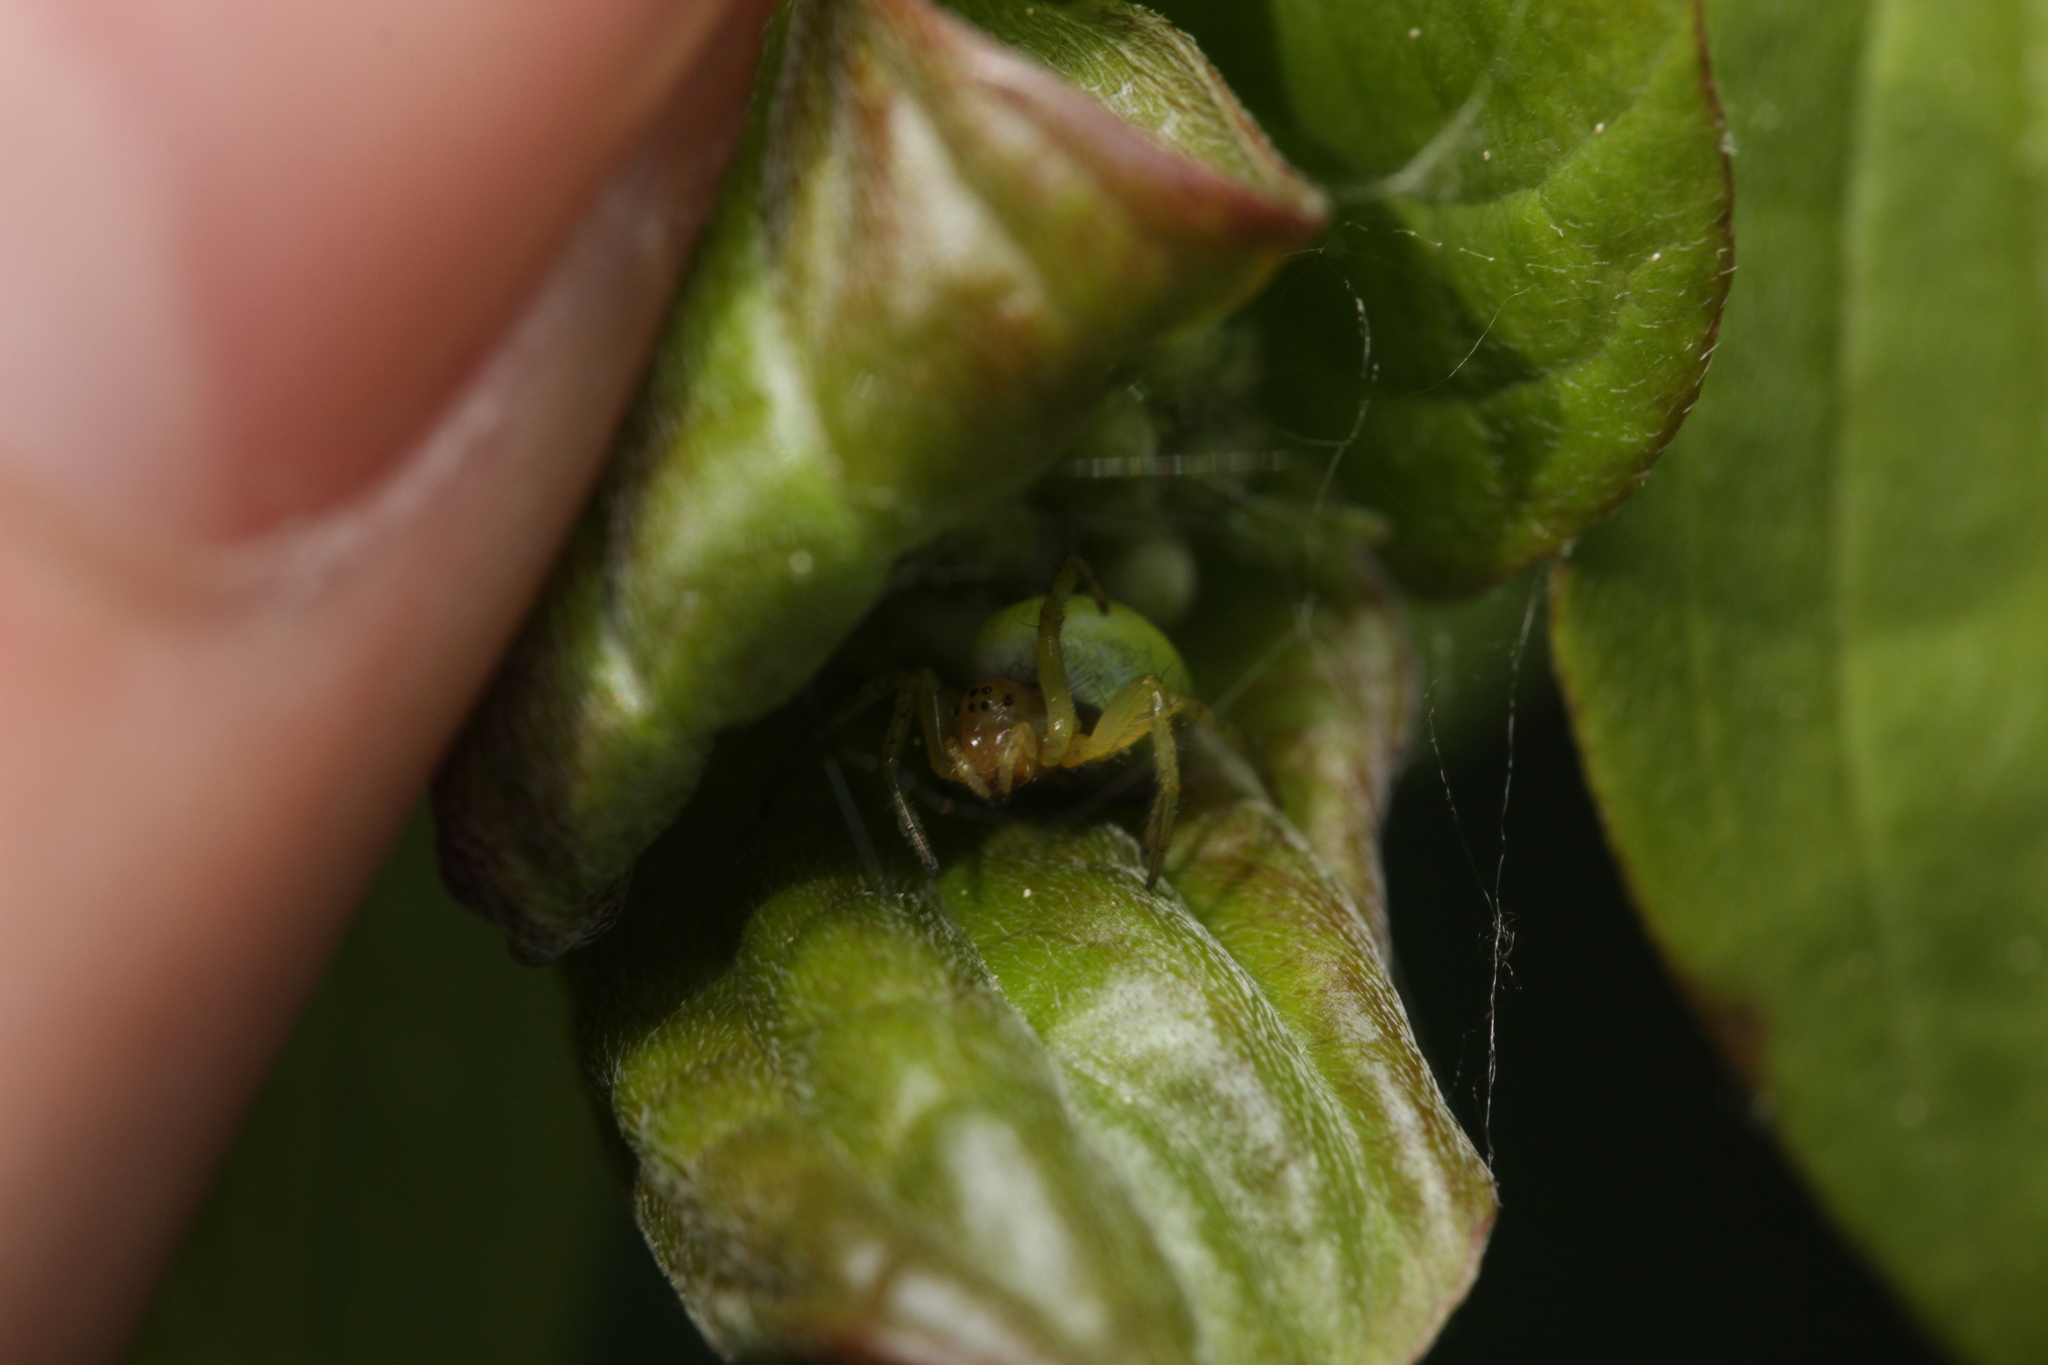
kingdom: Animalia
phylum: Arthropoda
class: Arachnida
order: Araneae
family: Araneidae
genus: Araniella
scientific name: Araniella
